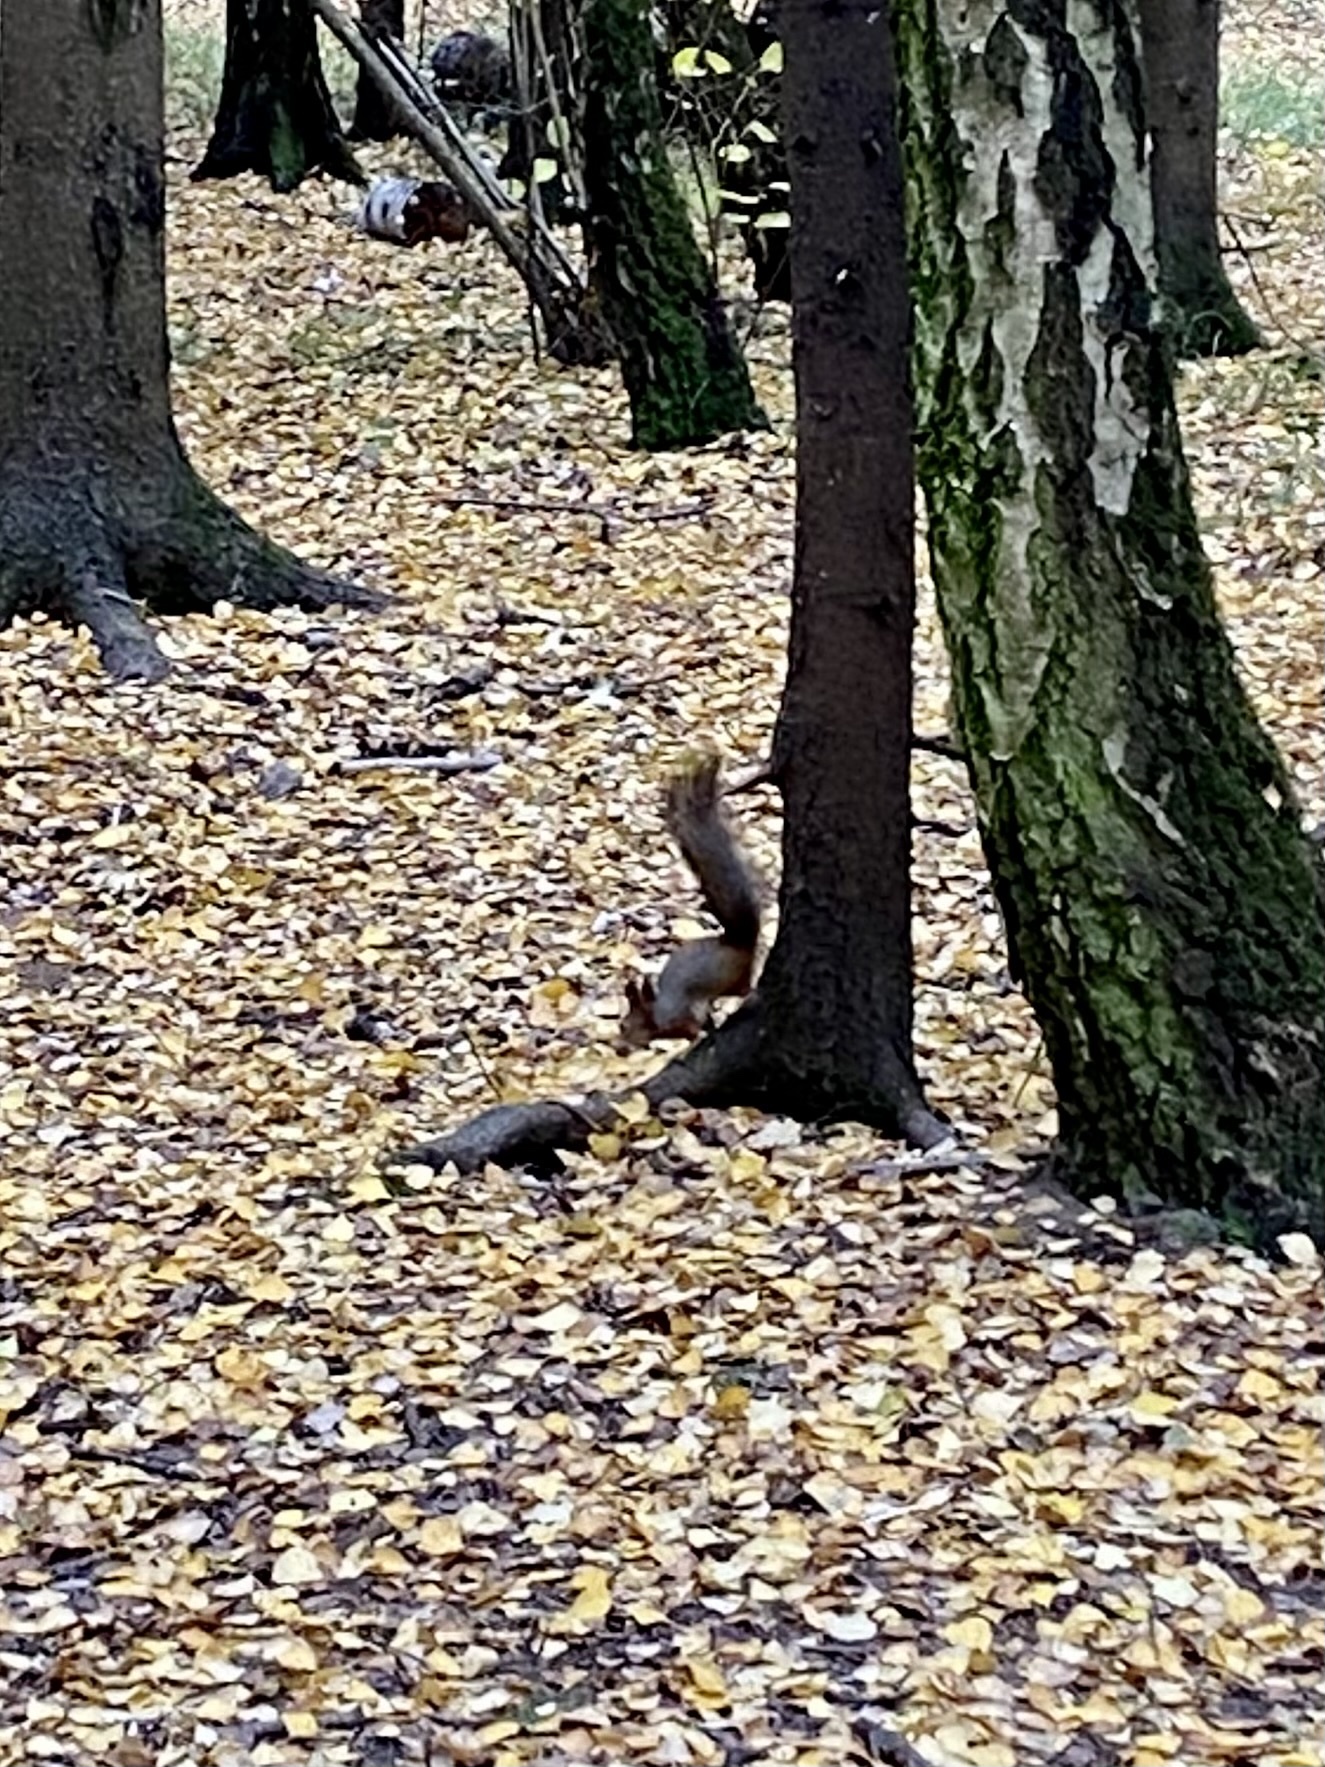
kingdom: Animalia
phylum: Chordata
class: Mammalia
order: Rodentia
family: Sciuridae
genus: Sciurus
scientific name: Sciurus vulgaris
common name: Eurasian red squirrel
